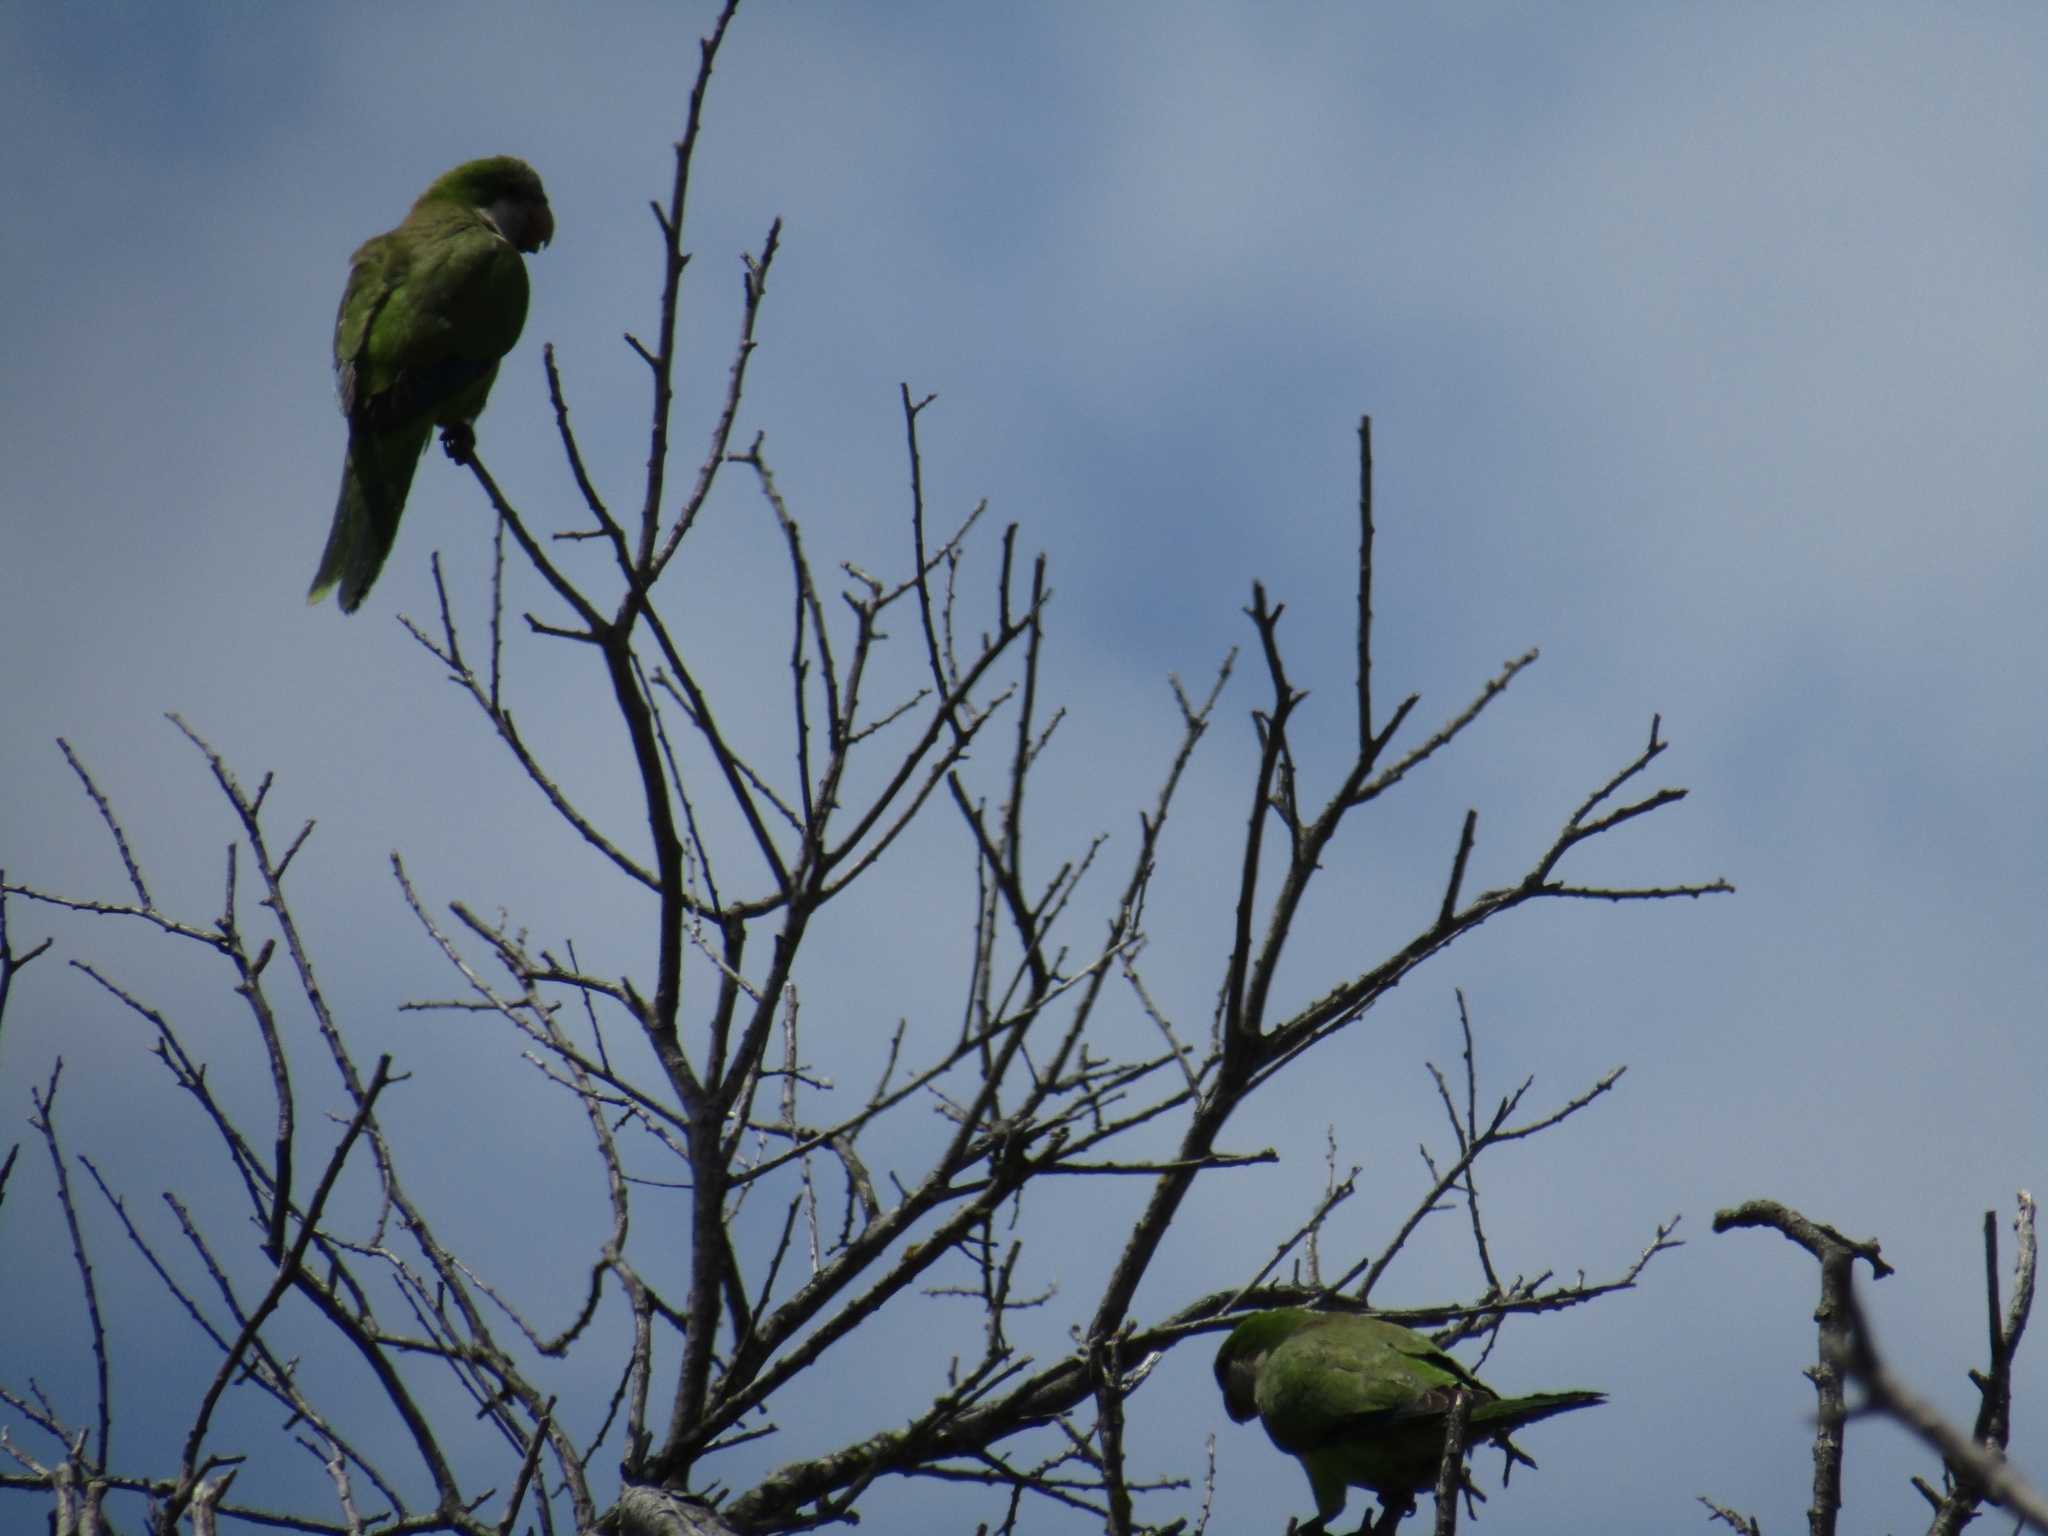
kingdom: Animalia
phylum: Chordata
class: Aves
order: Psittaciformes
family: Psittacidae
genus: Myiopsitta
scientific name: Myiopsitta monachus
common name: Monk parakeet
